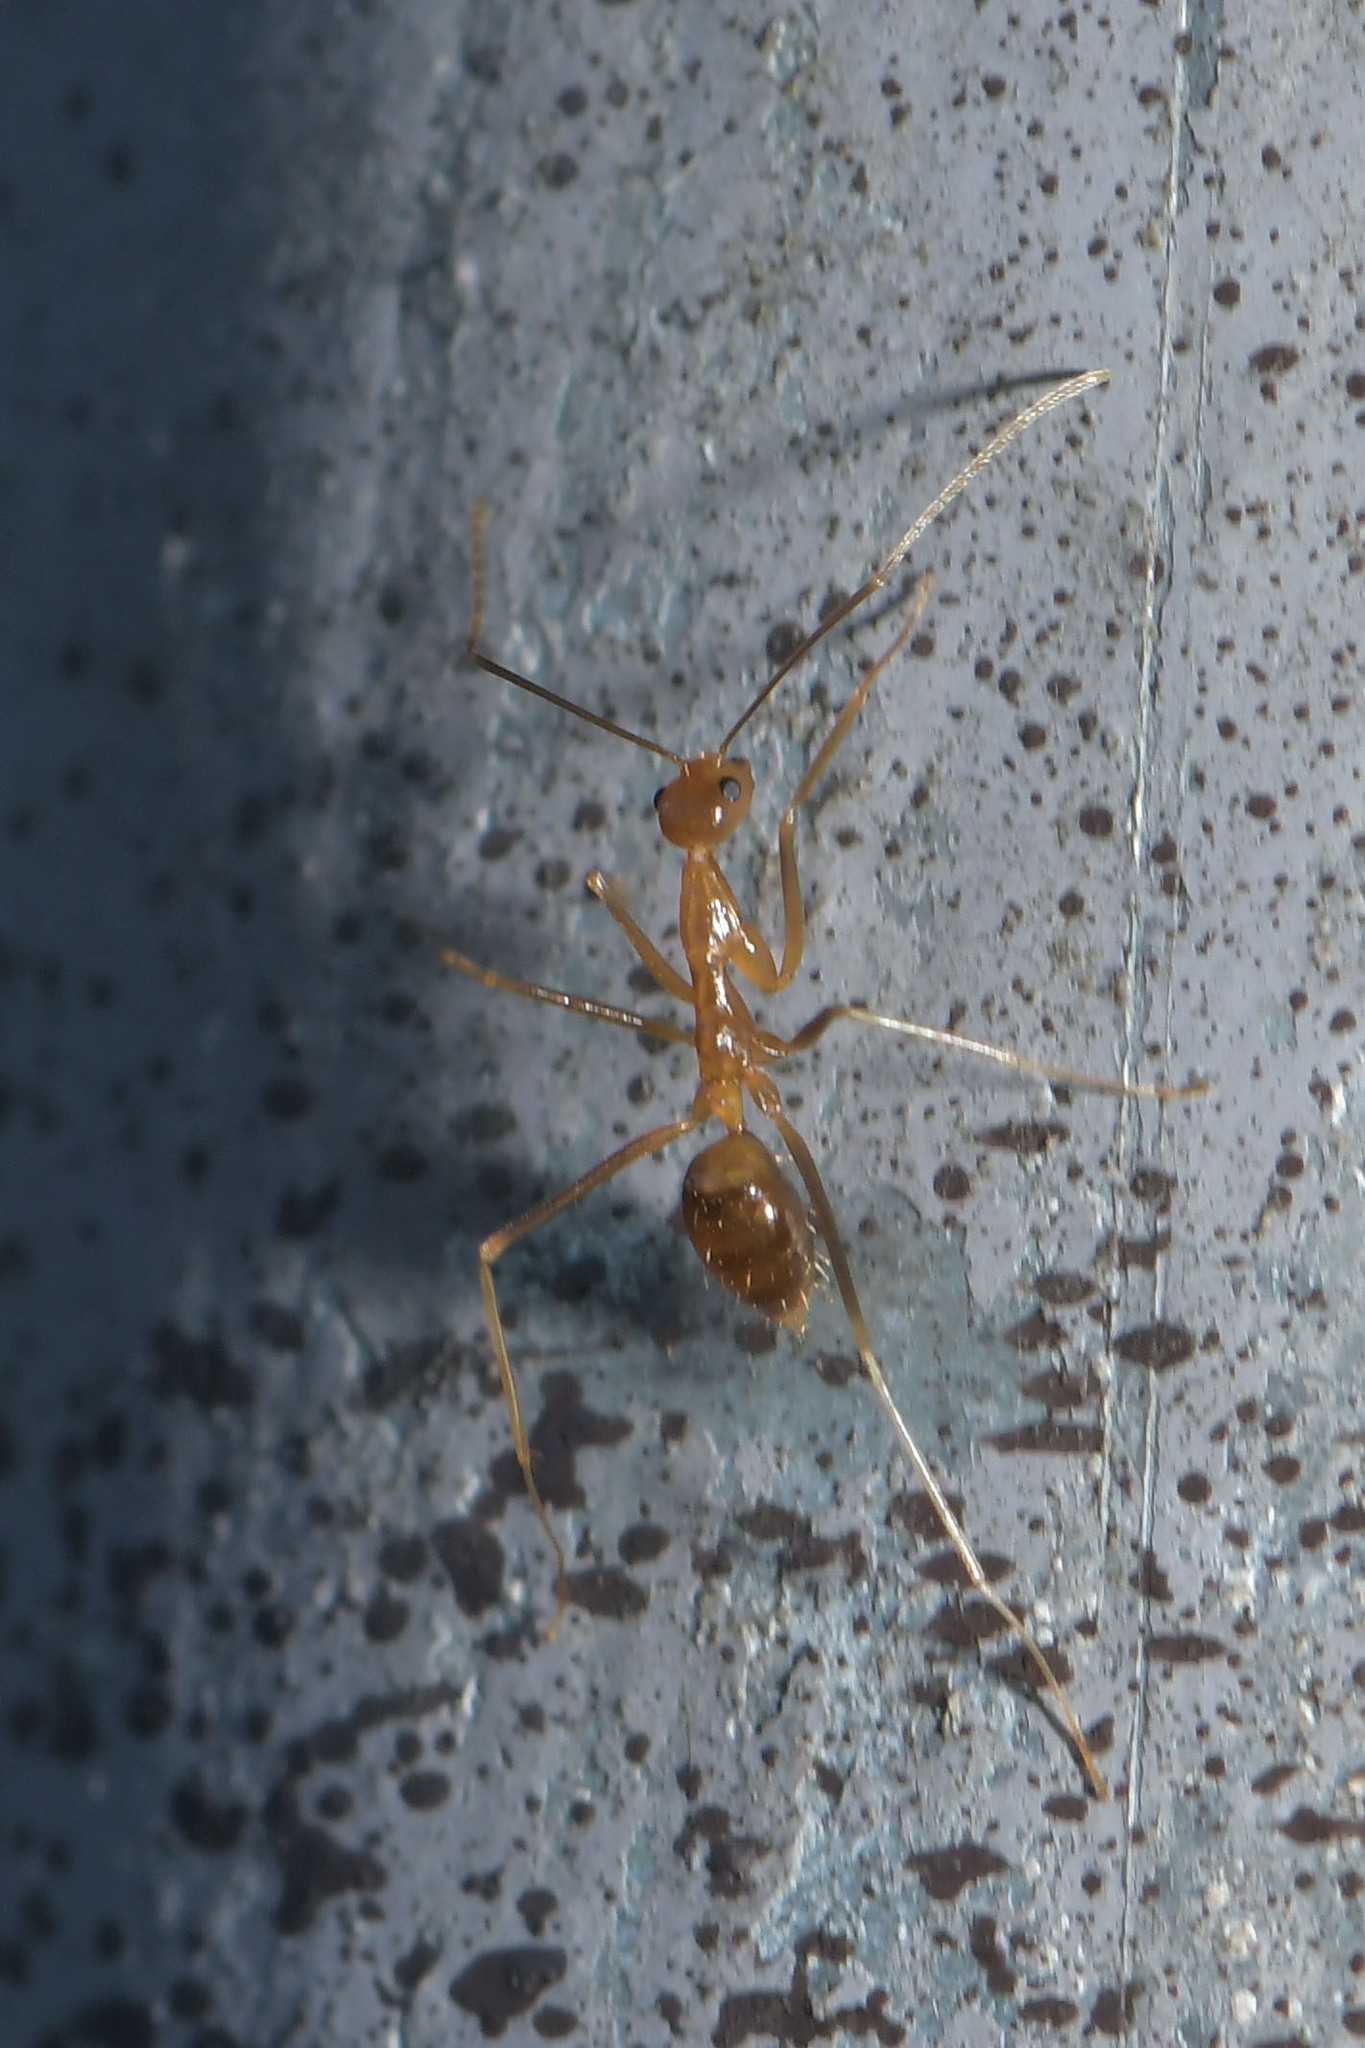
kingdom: Animalia
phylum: Arthropoda
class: Insecta
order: Hymenoptera
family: Formicidae
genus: Anoplolepis
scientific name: Anoplolepis gracilipes
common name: Ant
